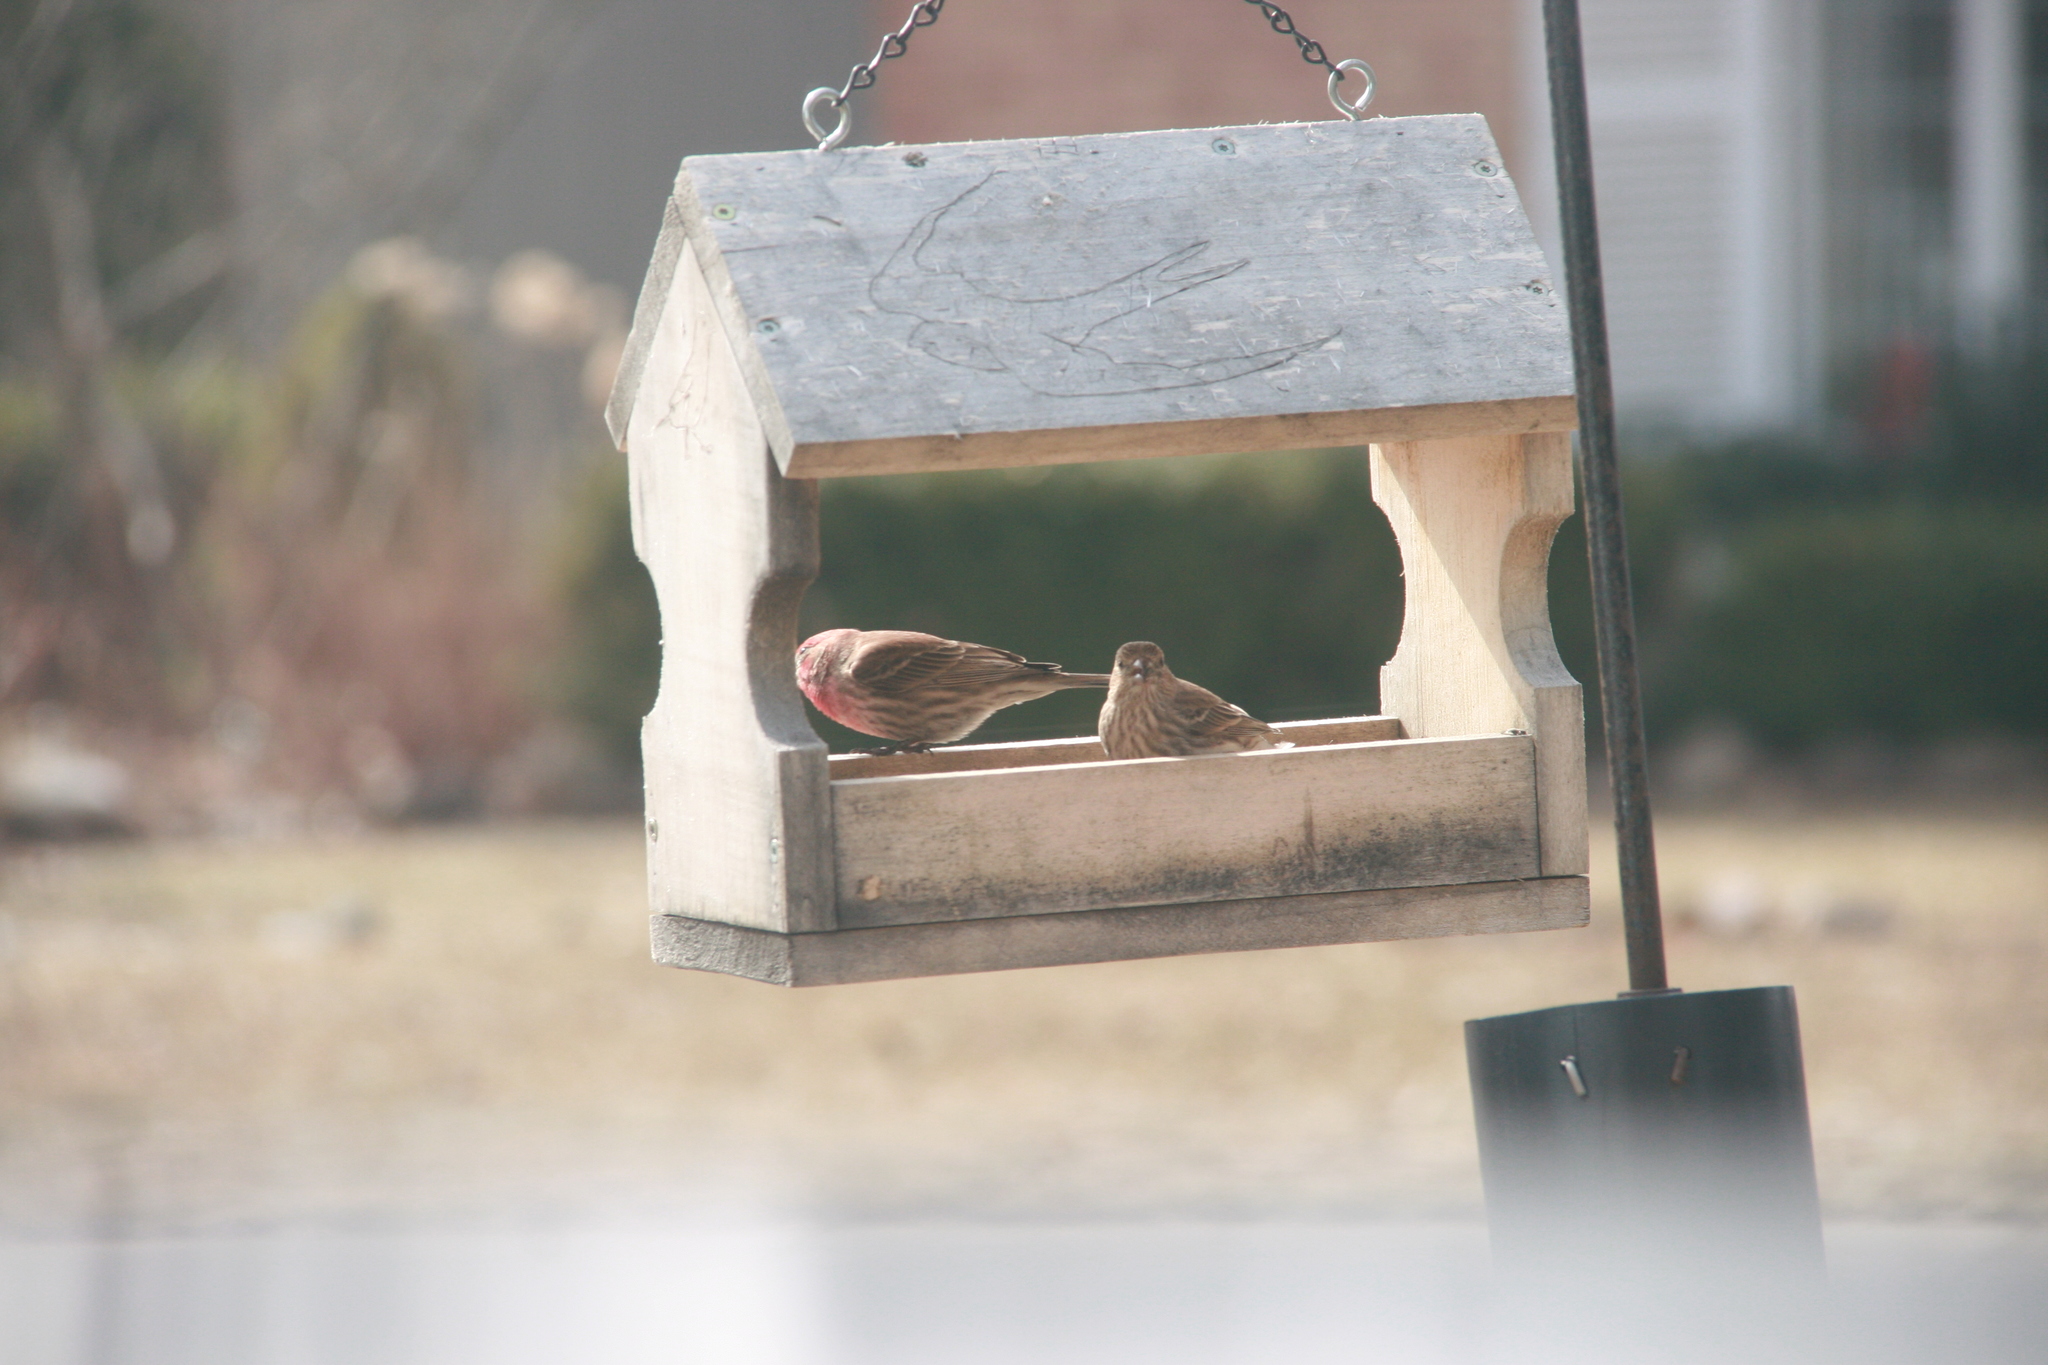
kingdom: Animalia
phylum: Chordata
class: Aves
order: Passeriformes
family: Fringillidae
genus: Haemorhous
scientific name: Haemorhous mexicanus
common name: House finch
